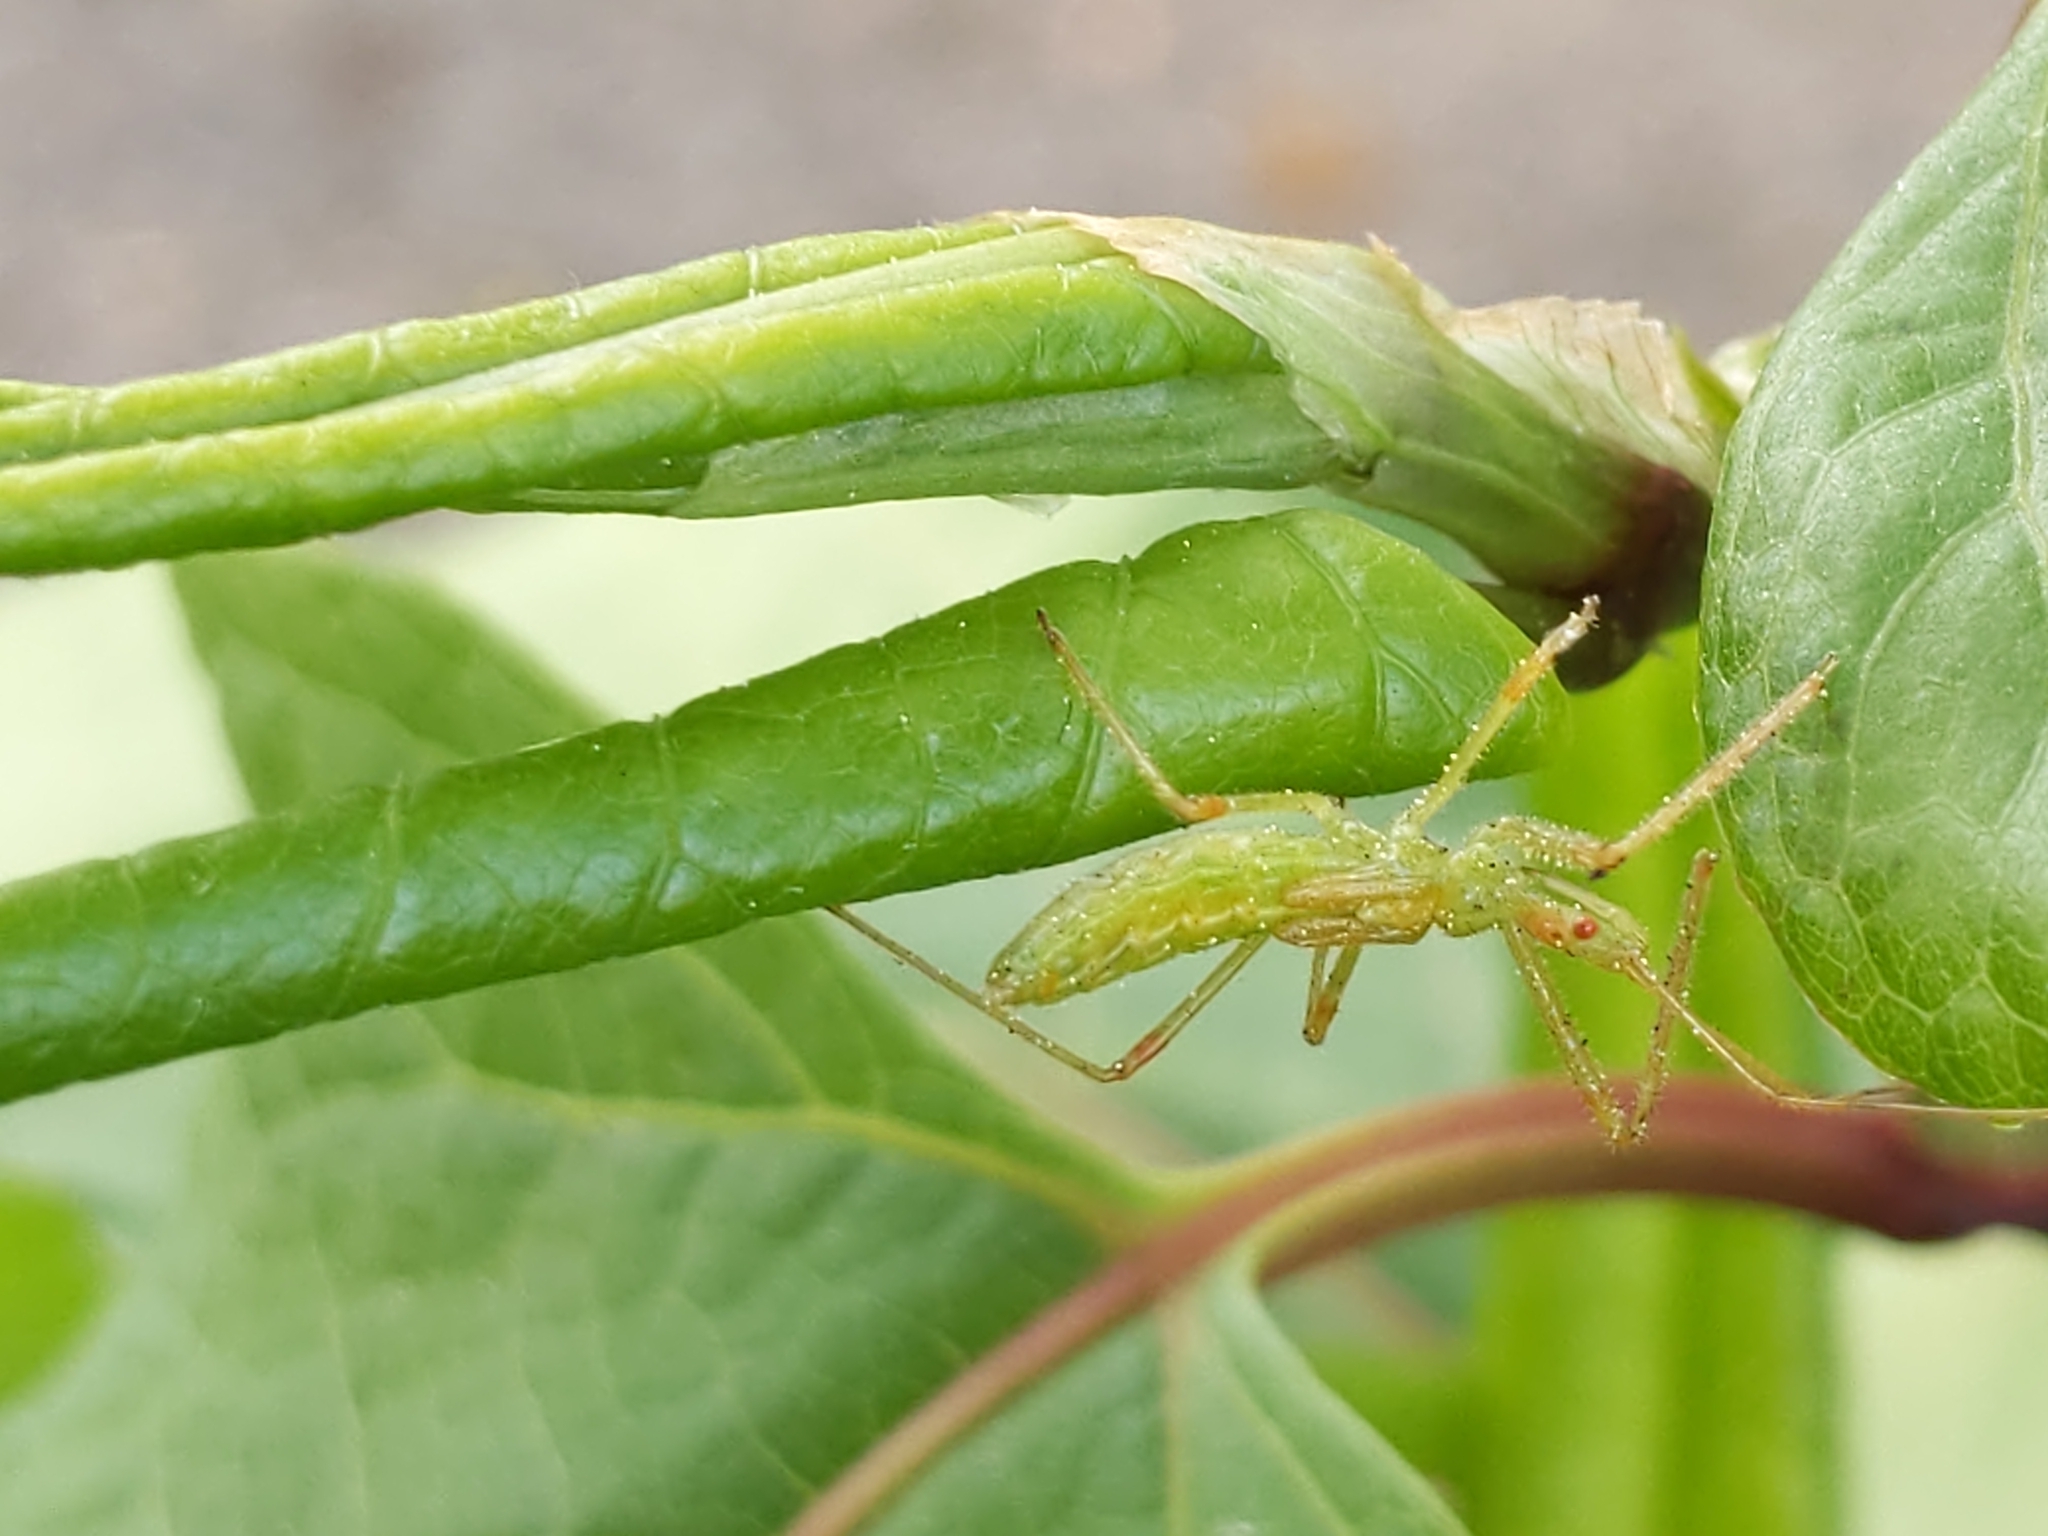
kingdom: Animalia
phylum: Arthropoda
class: Insecta
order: Hemiptera
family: Reduviidae
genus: Zelus
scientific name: Zelus luridus
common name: Pale green assassin bug
